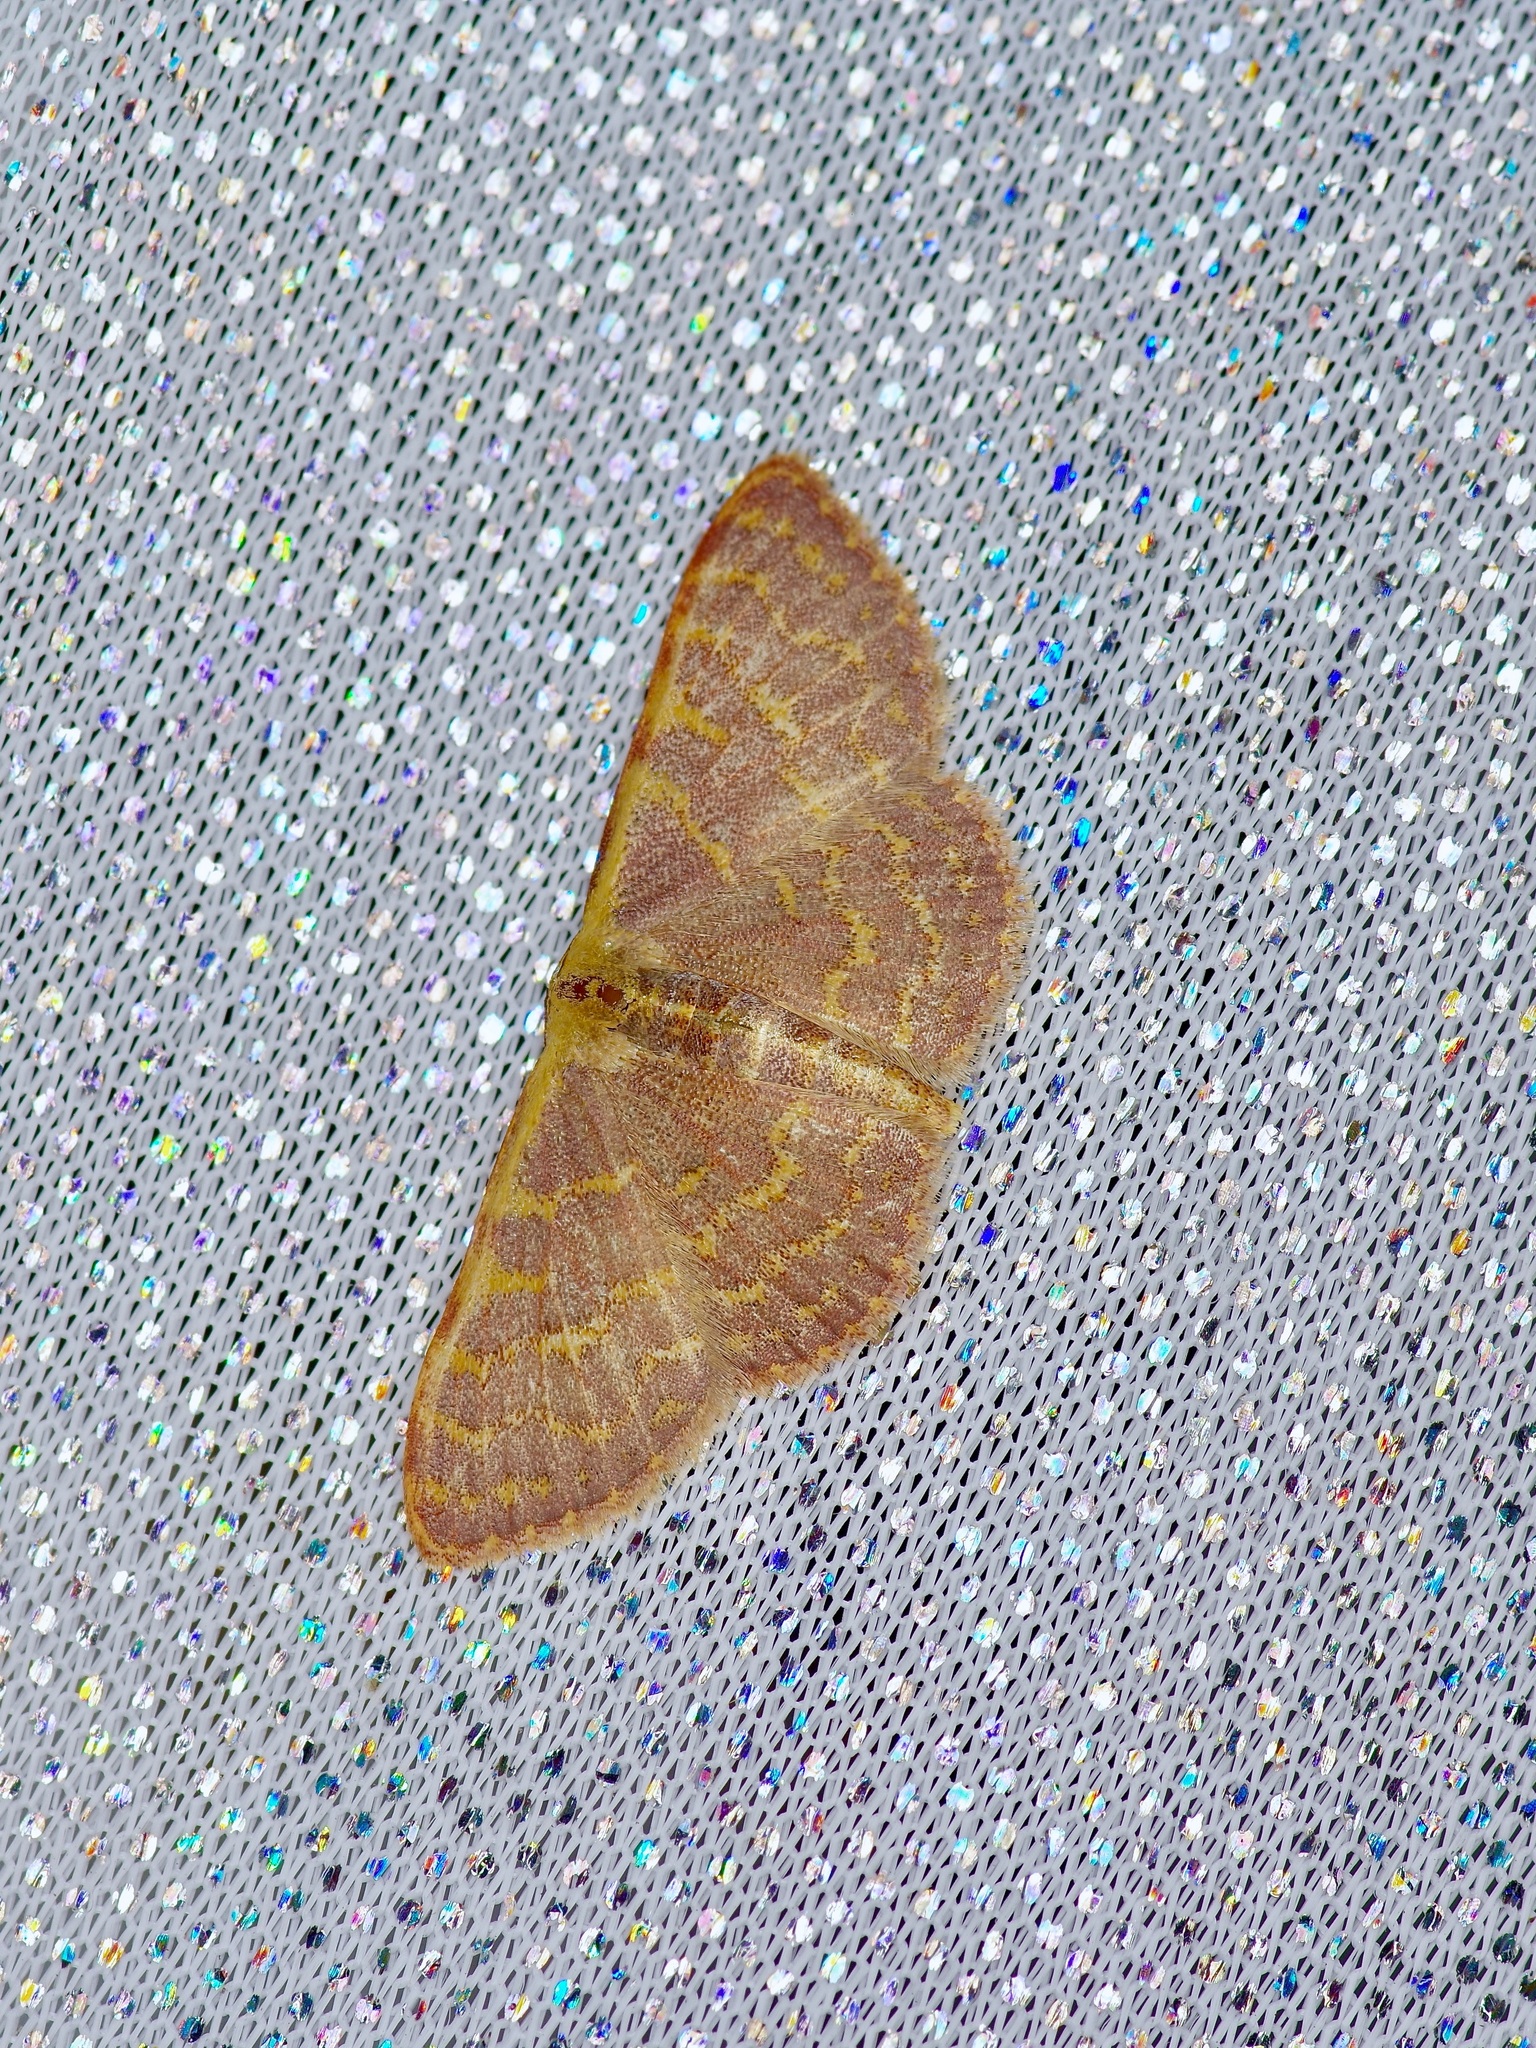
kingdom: Animalia
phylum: Arthropoda
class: Insecta
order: Lepidoptera
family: Geometridae
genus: Leptostales
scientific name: Leptostales pannaria
